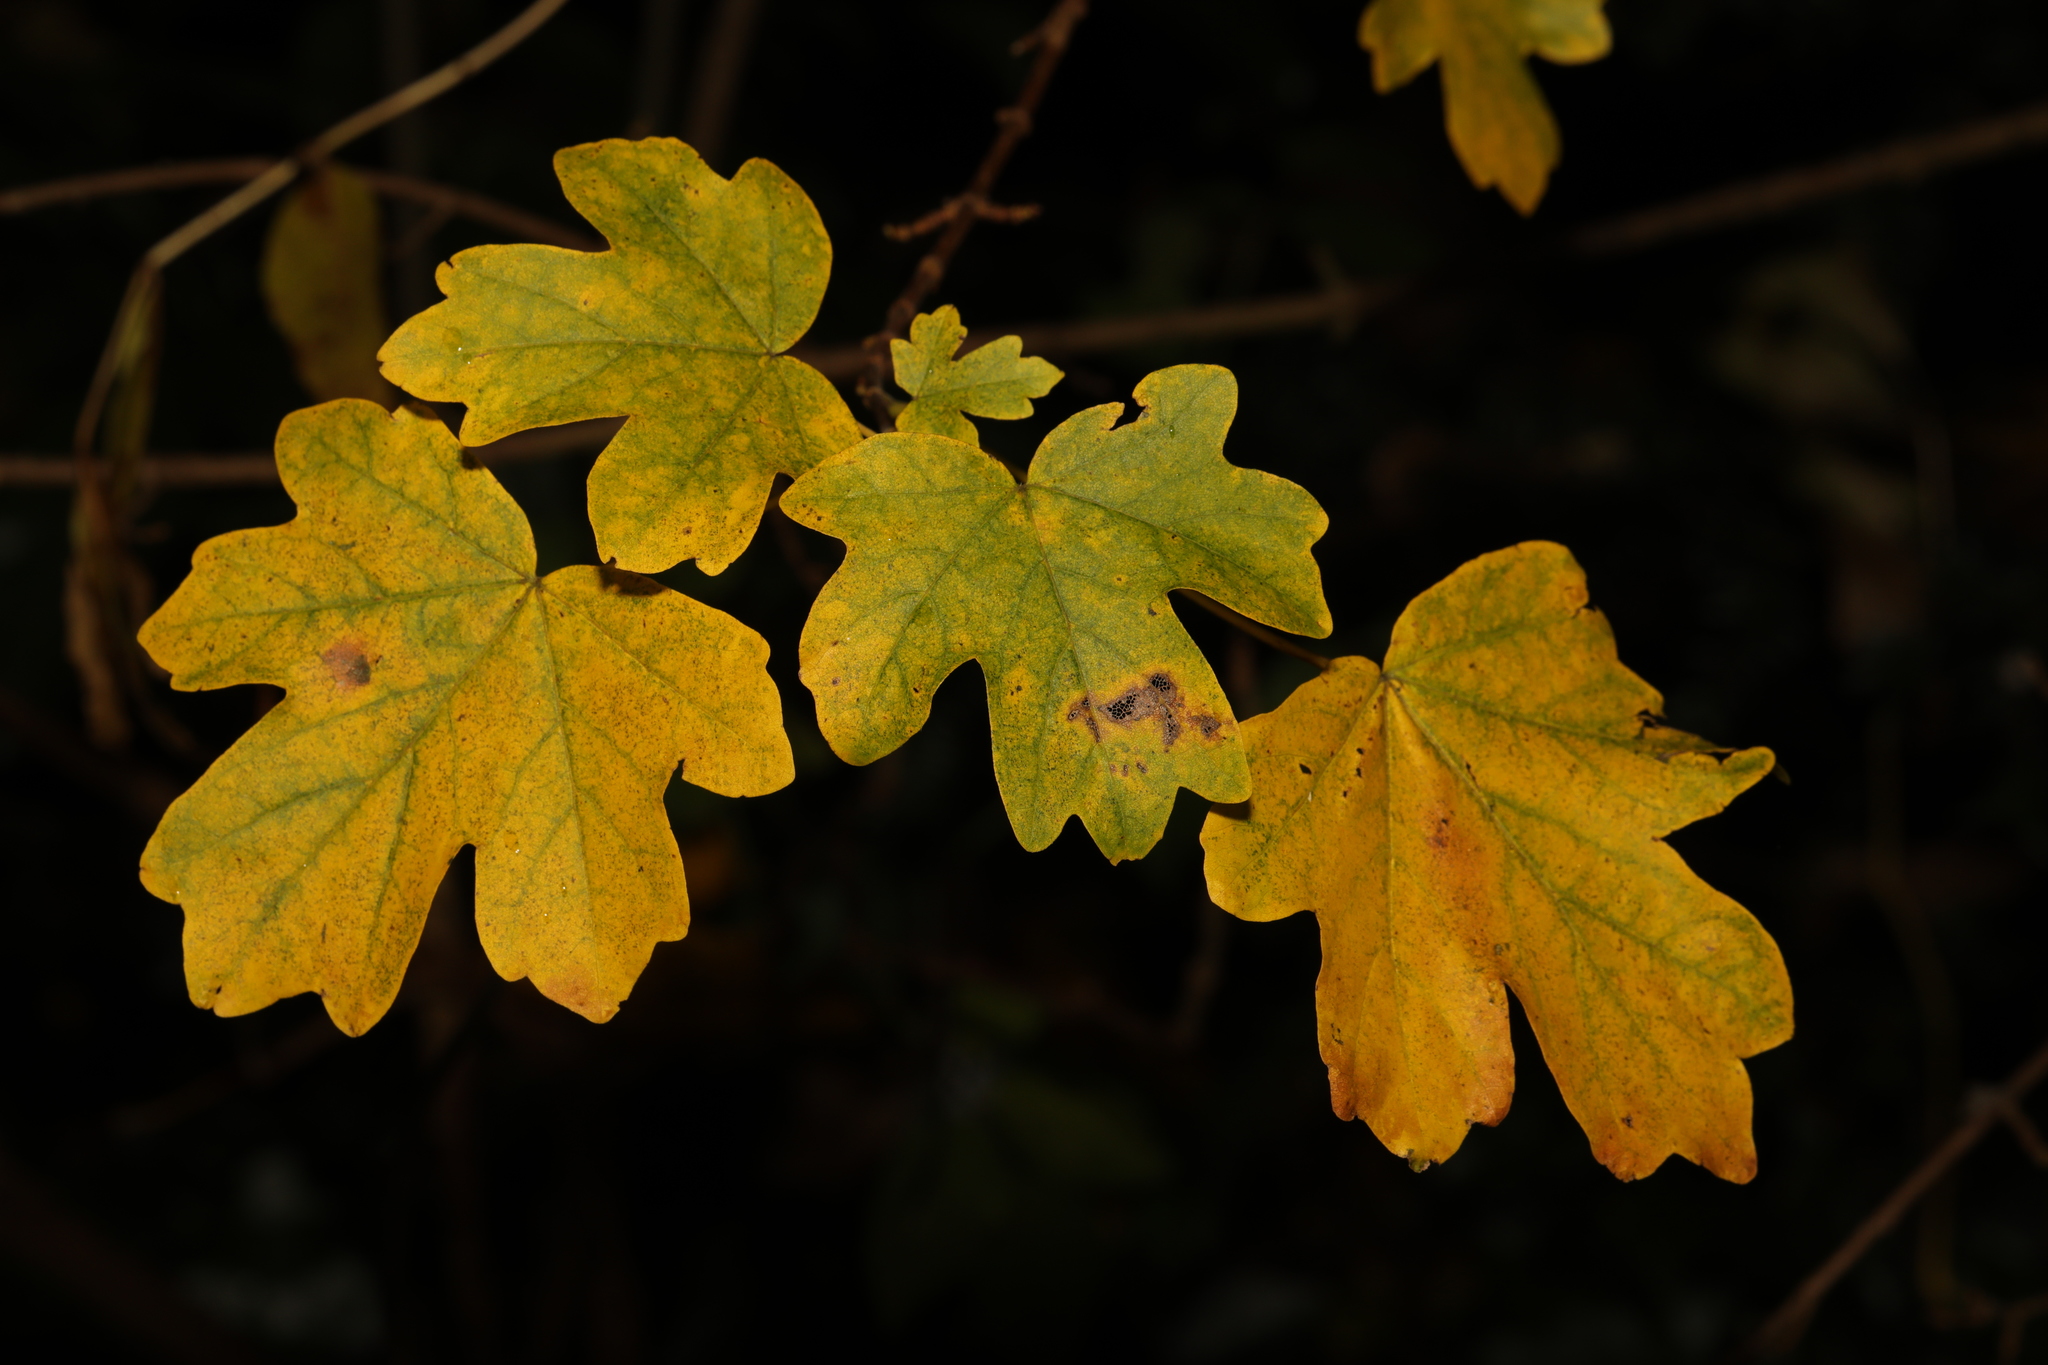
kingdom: Plantae
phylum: Tracheophyta
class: Magnoliopsida
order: Sapindales
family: Sapindaceae
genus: Acer
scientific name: Acer campestre
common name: Field maple
